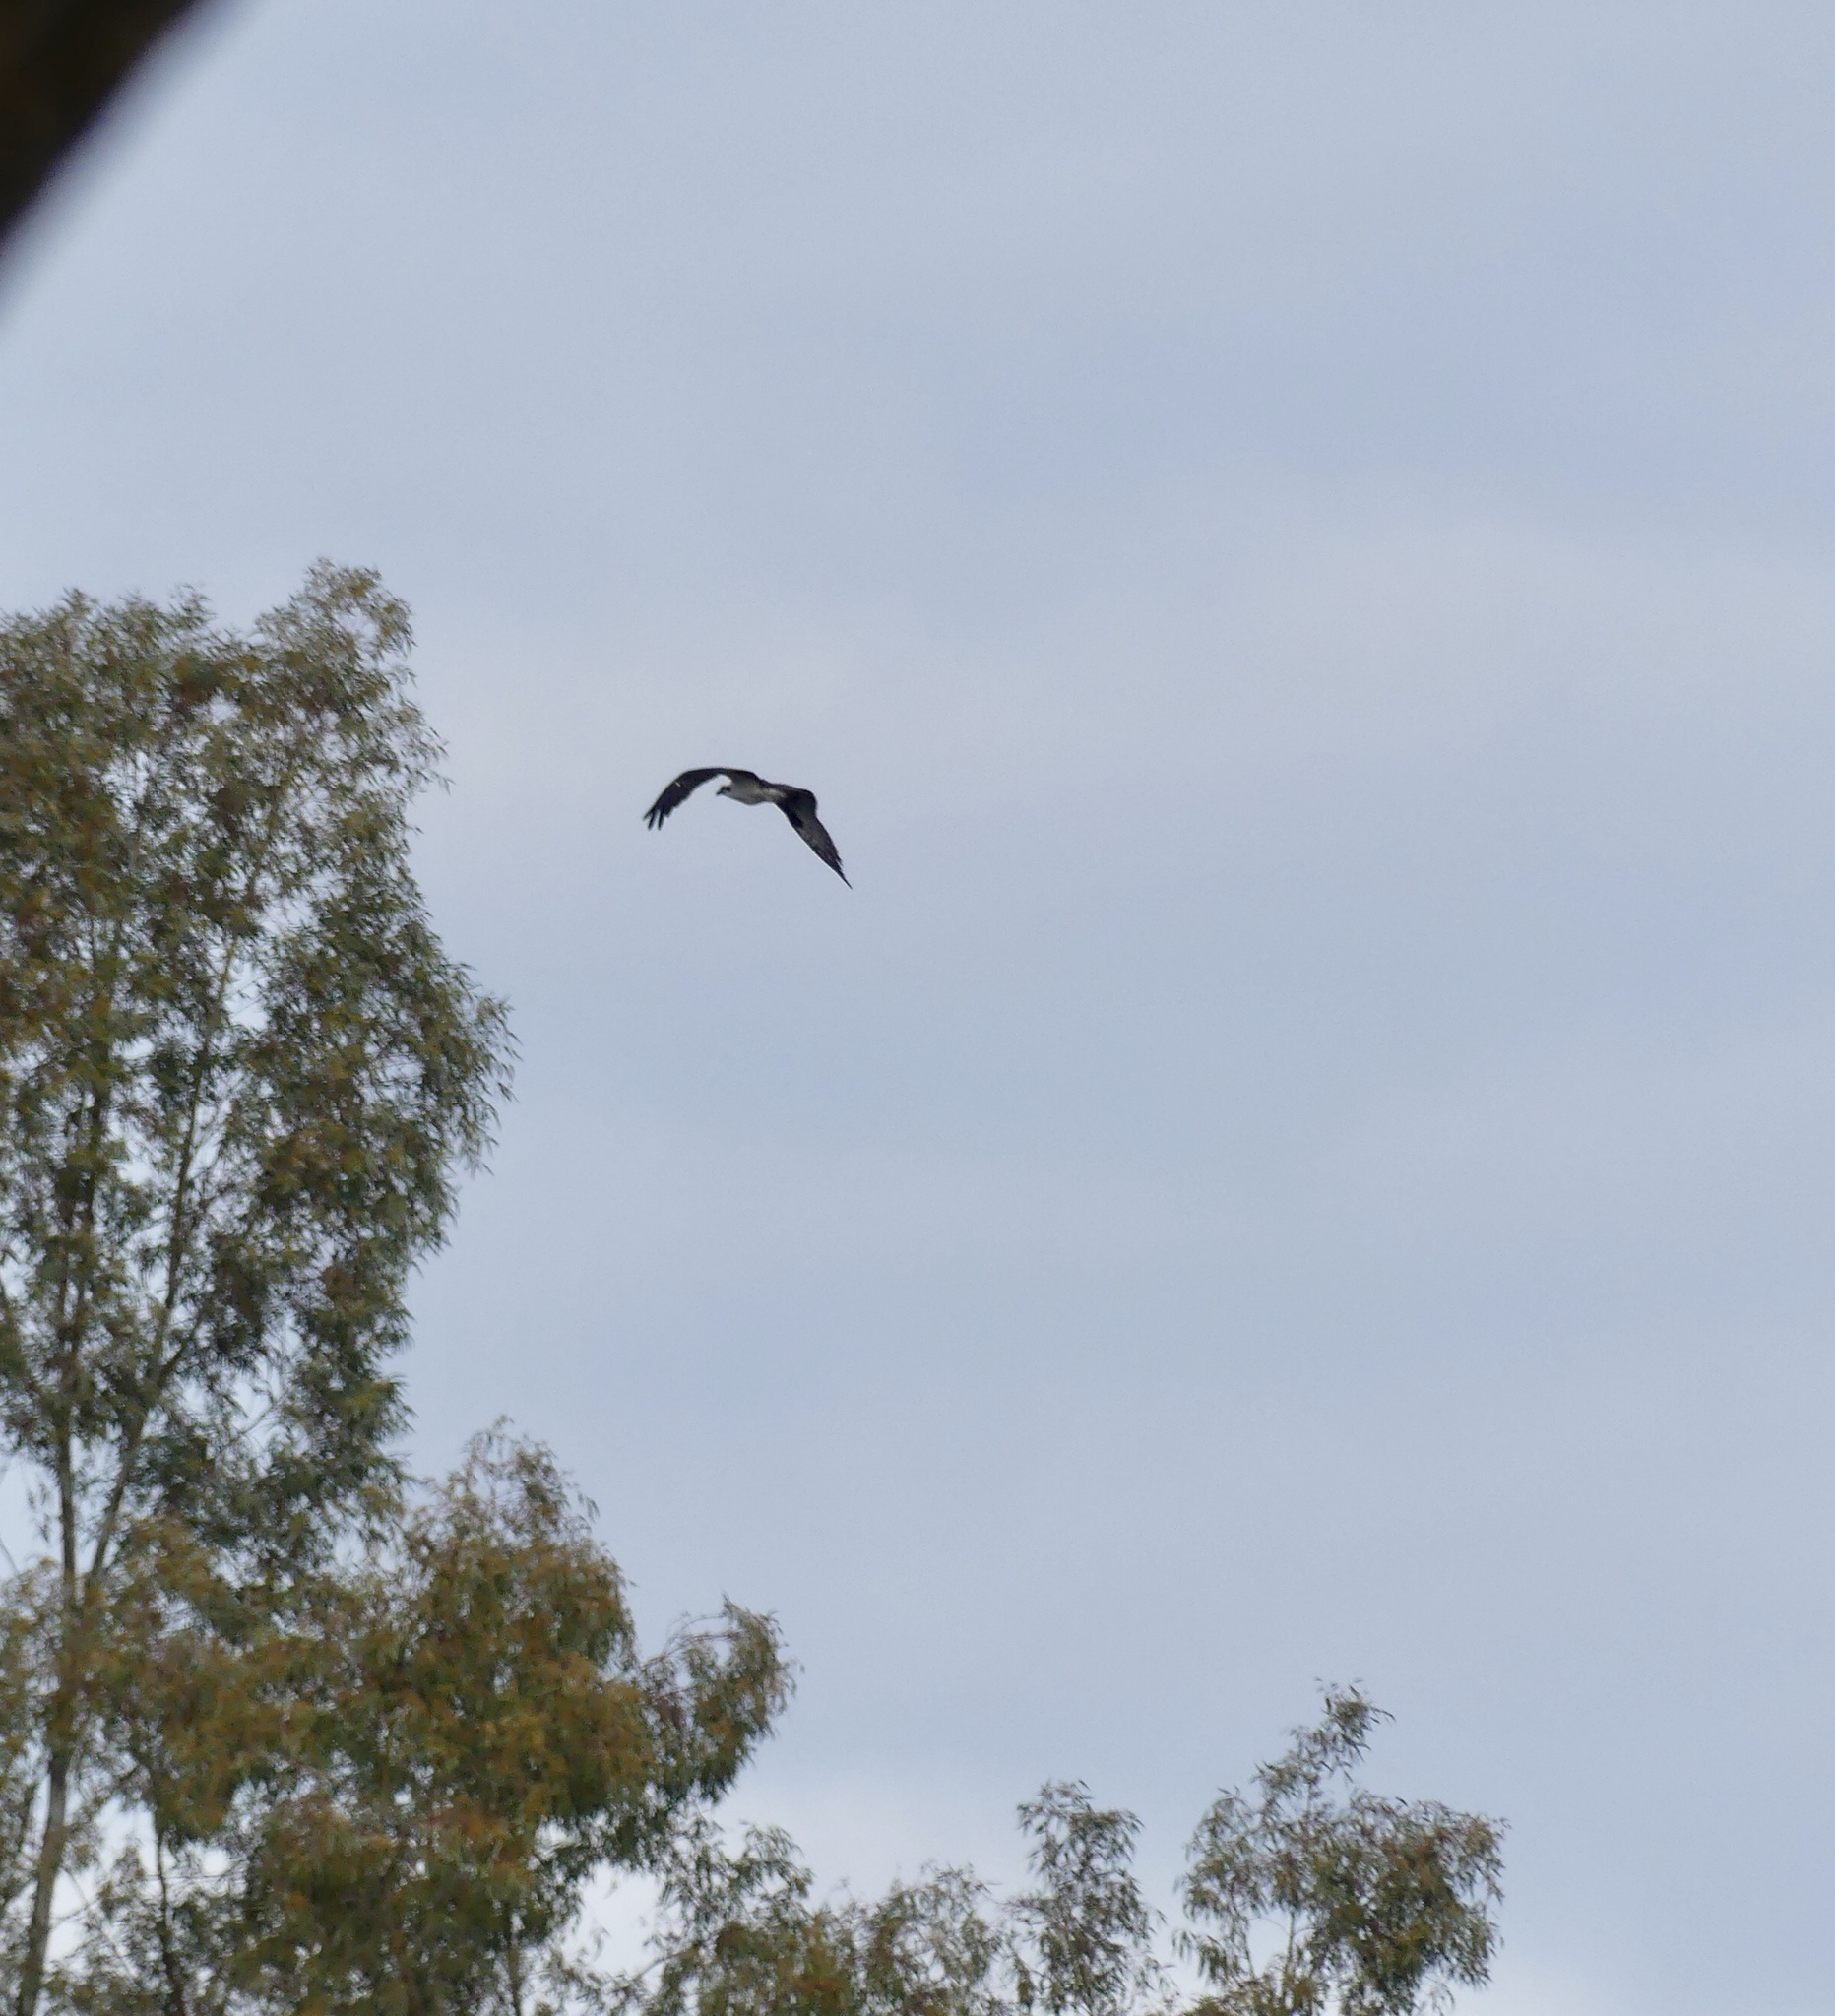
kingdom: Animalia
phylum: Chordata
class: Aves
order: Accipitriformes
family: Pandionidae
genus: Pandion
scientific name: Pandion haliaetus
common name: Osprey
